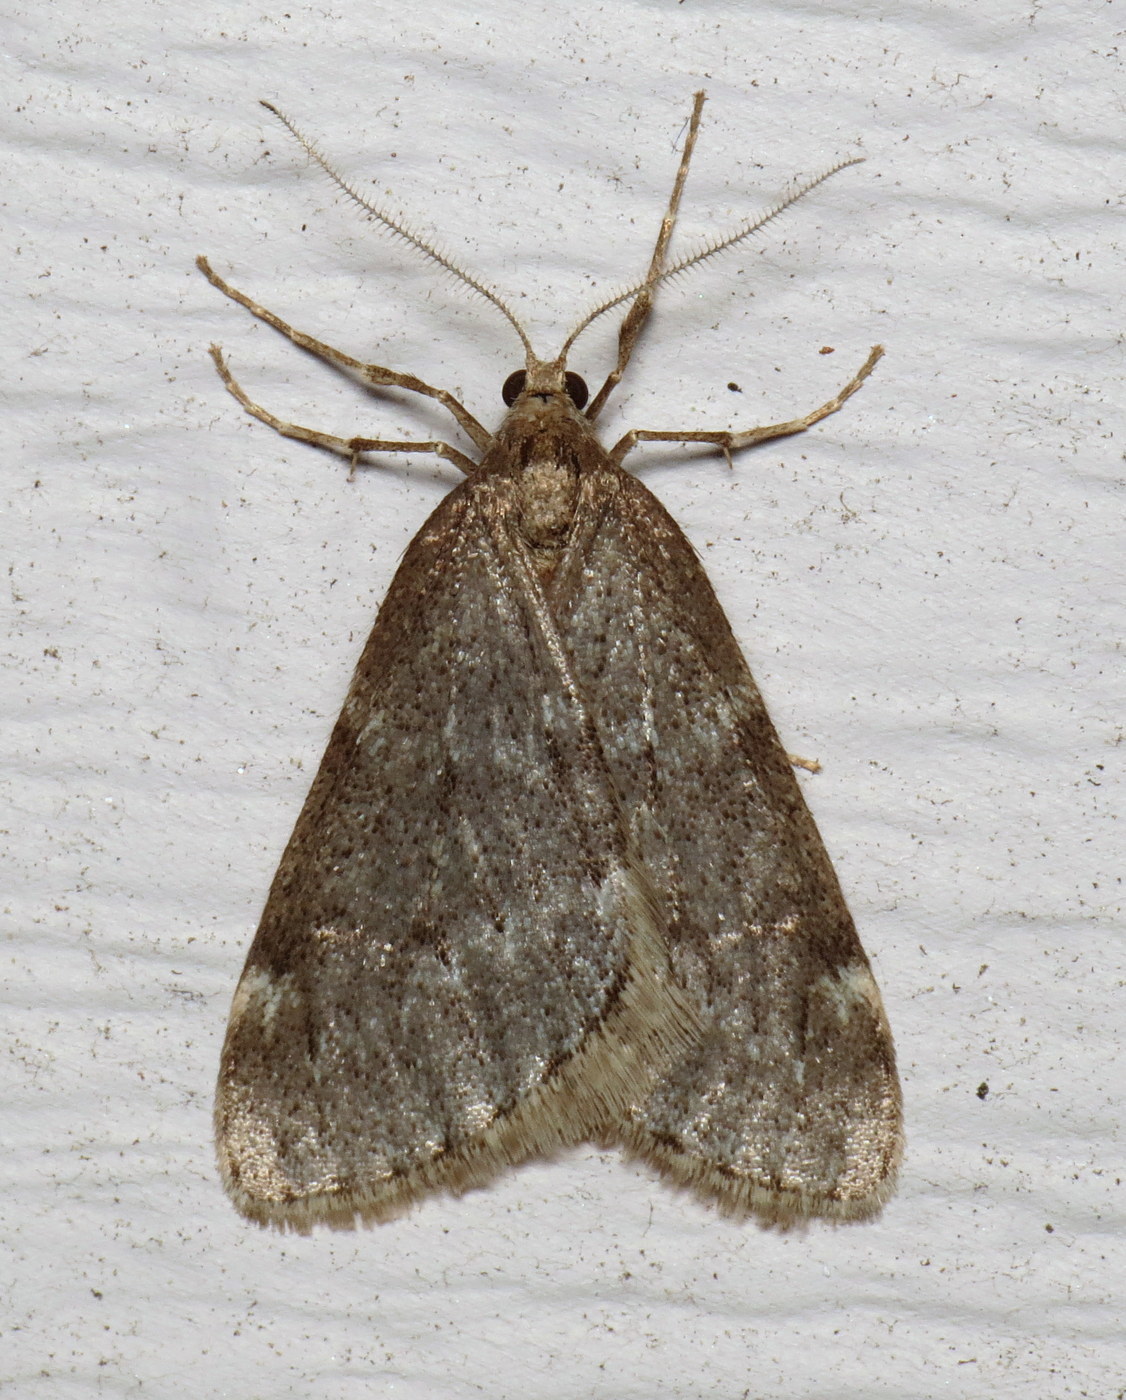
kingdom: Animalia
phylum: Arthropoda
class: Insecta
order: Lepidoptera
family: Geometridae
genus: Alsophila
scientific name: Alsophila pometaria
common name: Fall cankerworm
